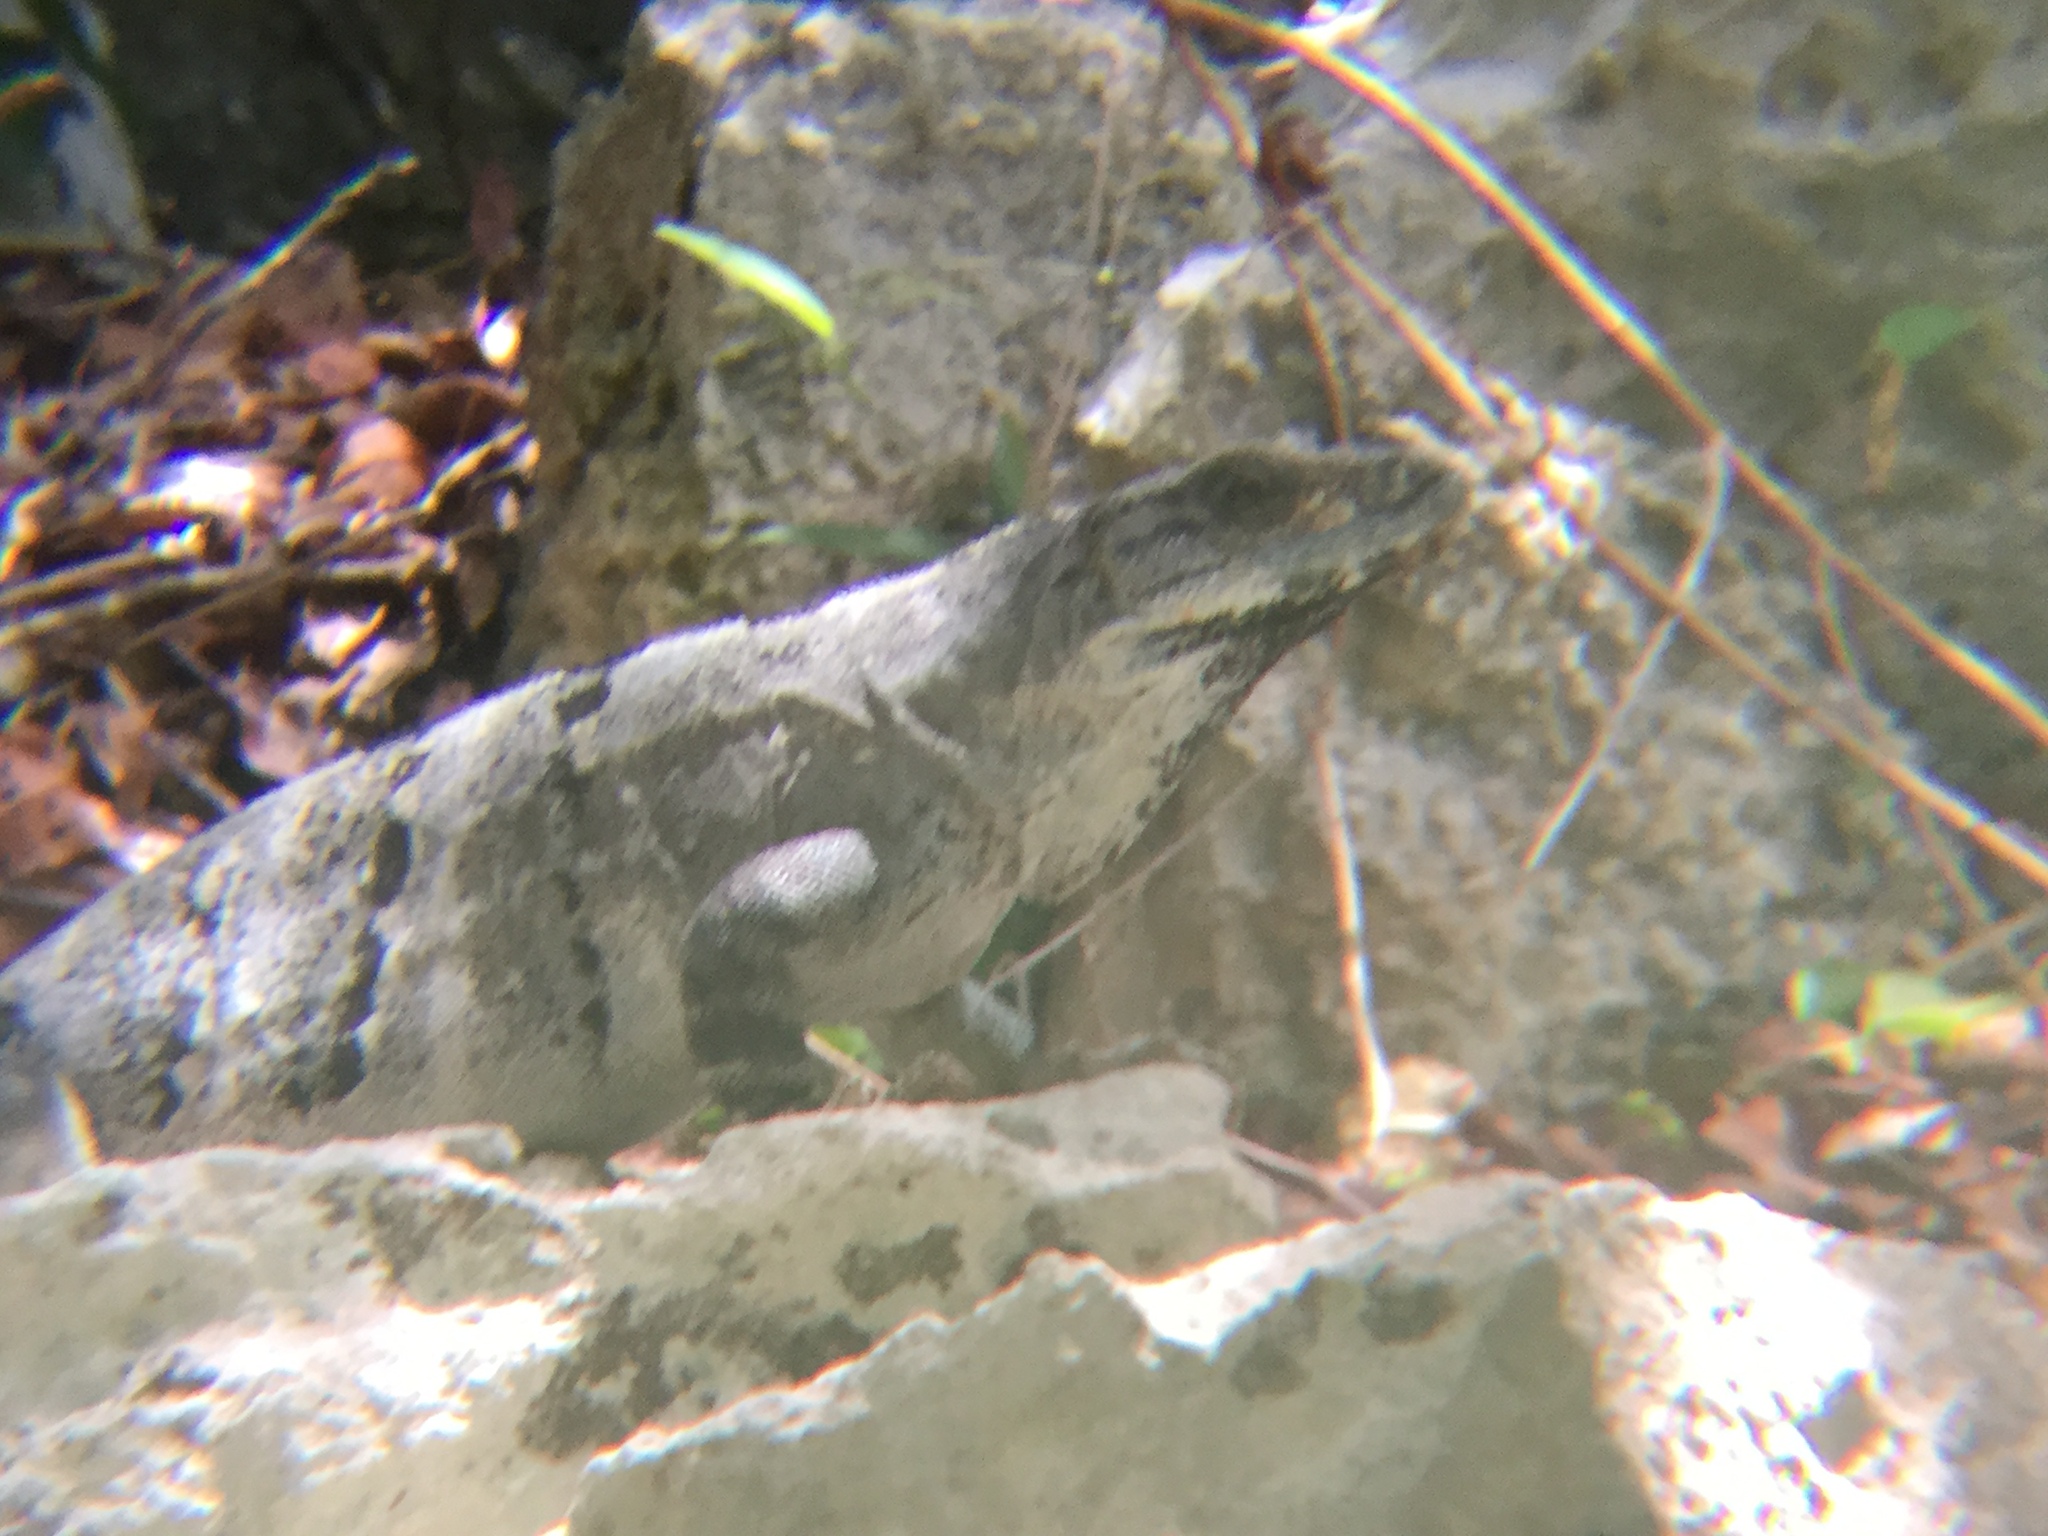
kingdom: Animalia
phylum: Chordata
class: Squamata
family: Iguanidae
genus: Ctenosaura
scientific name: Ctenosaura similis
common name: Black spiny-tailed iguana
